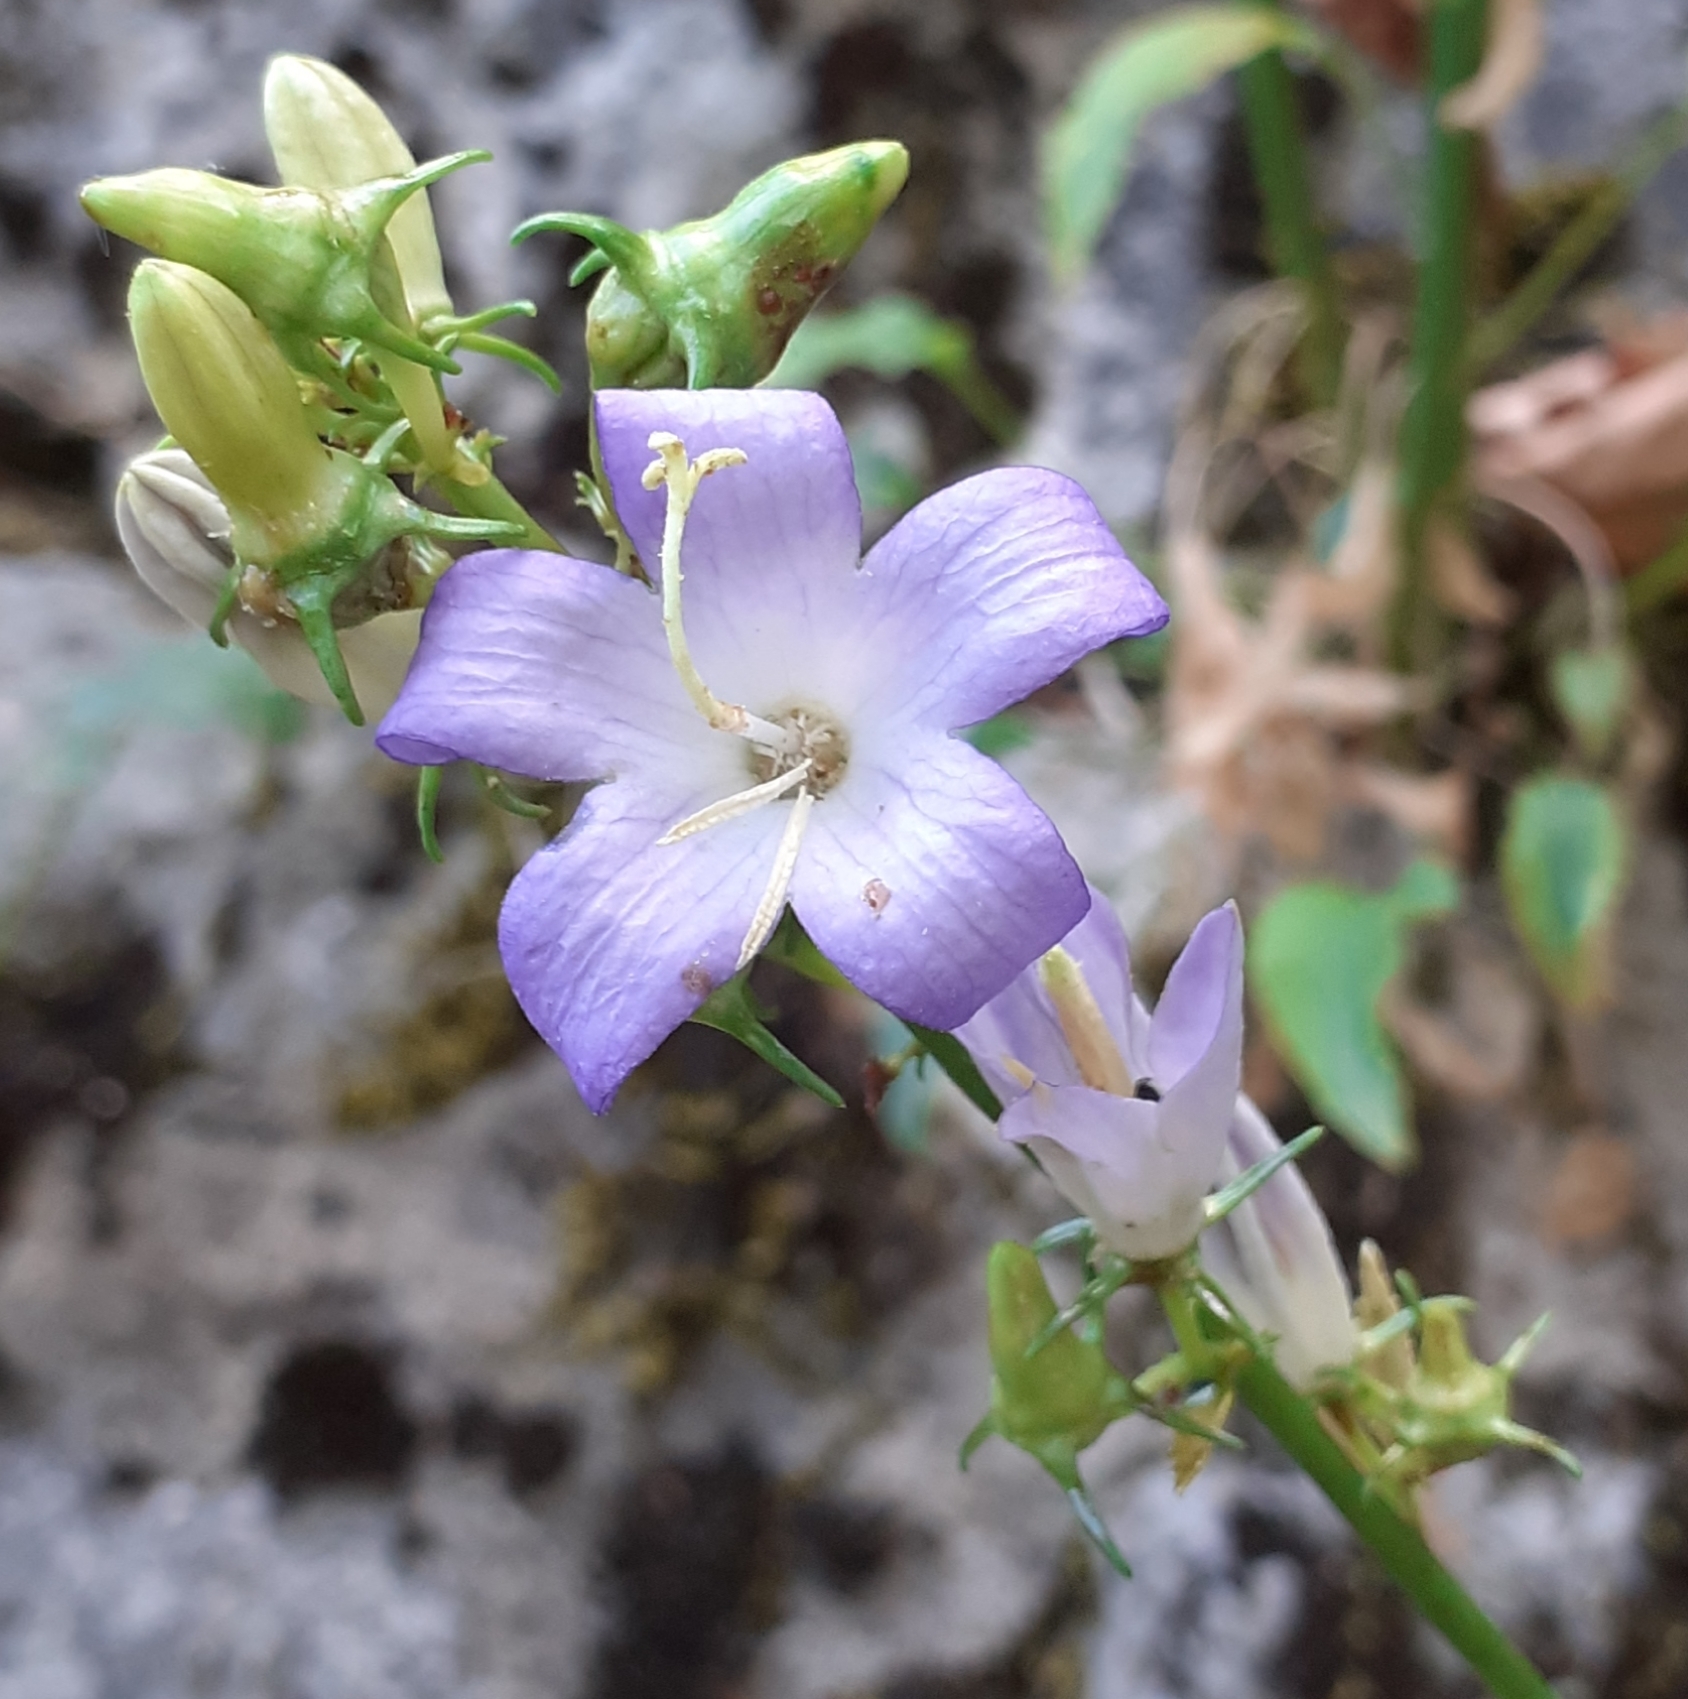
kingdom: Plantae
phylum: Tracheophyta
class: Magnoliopsida
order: Asterales
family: Campanulaceae
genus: Campanula
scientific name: Campanula austroadriatica
